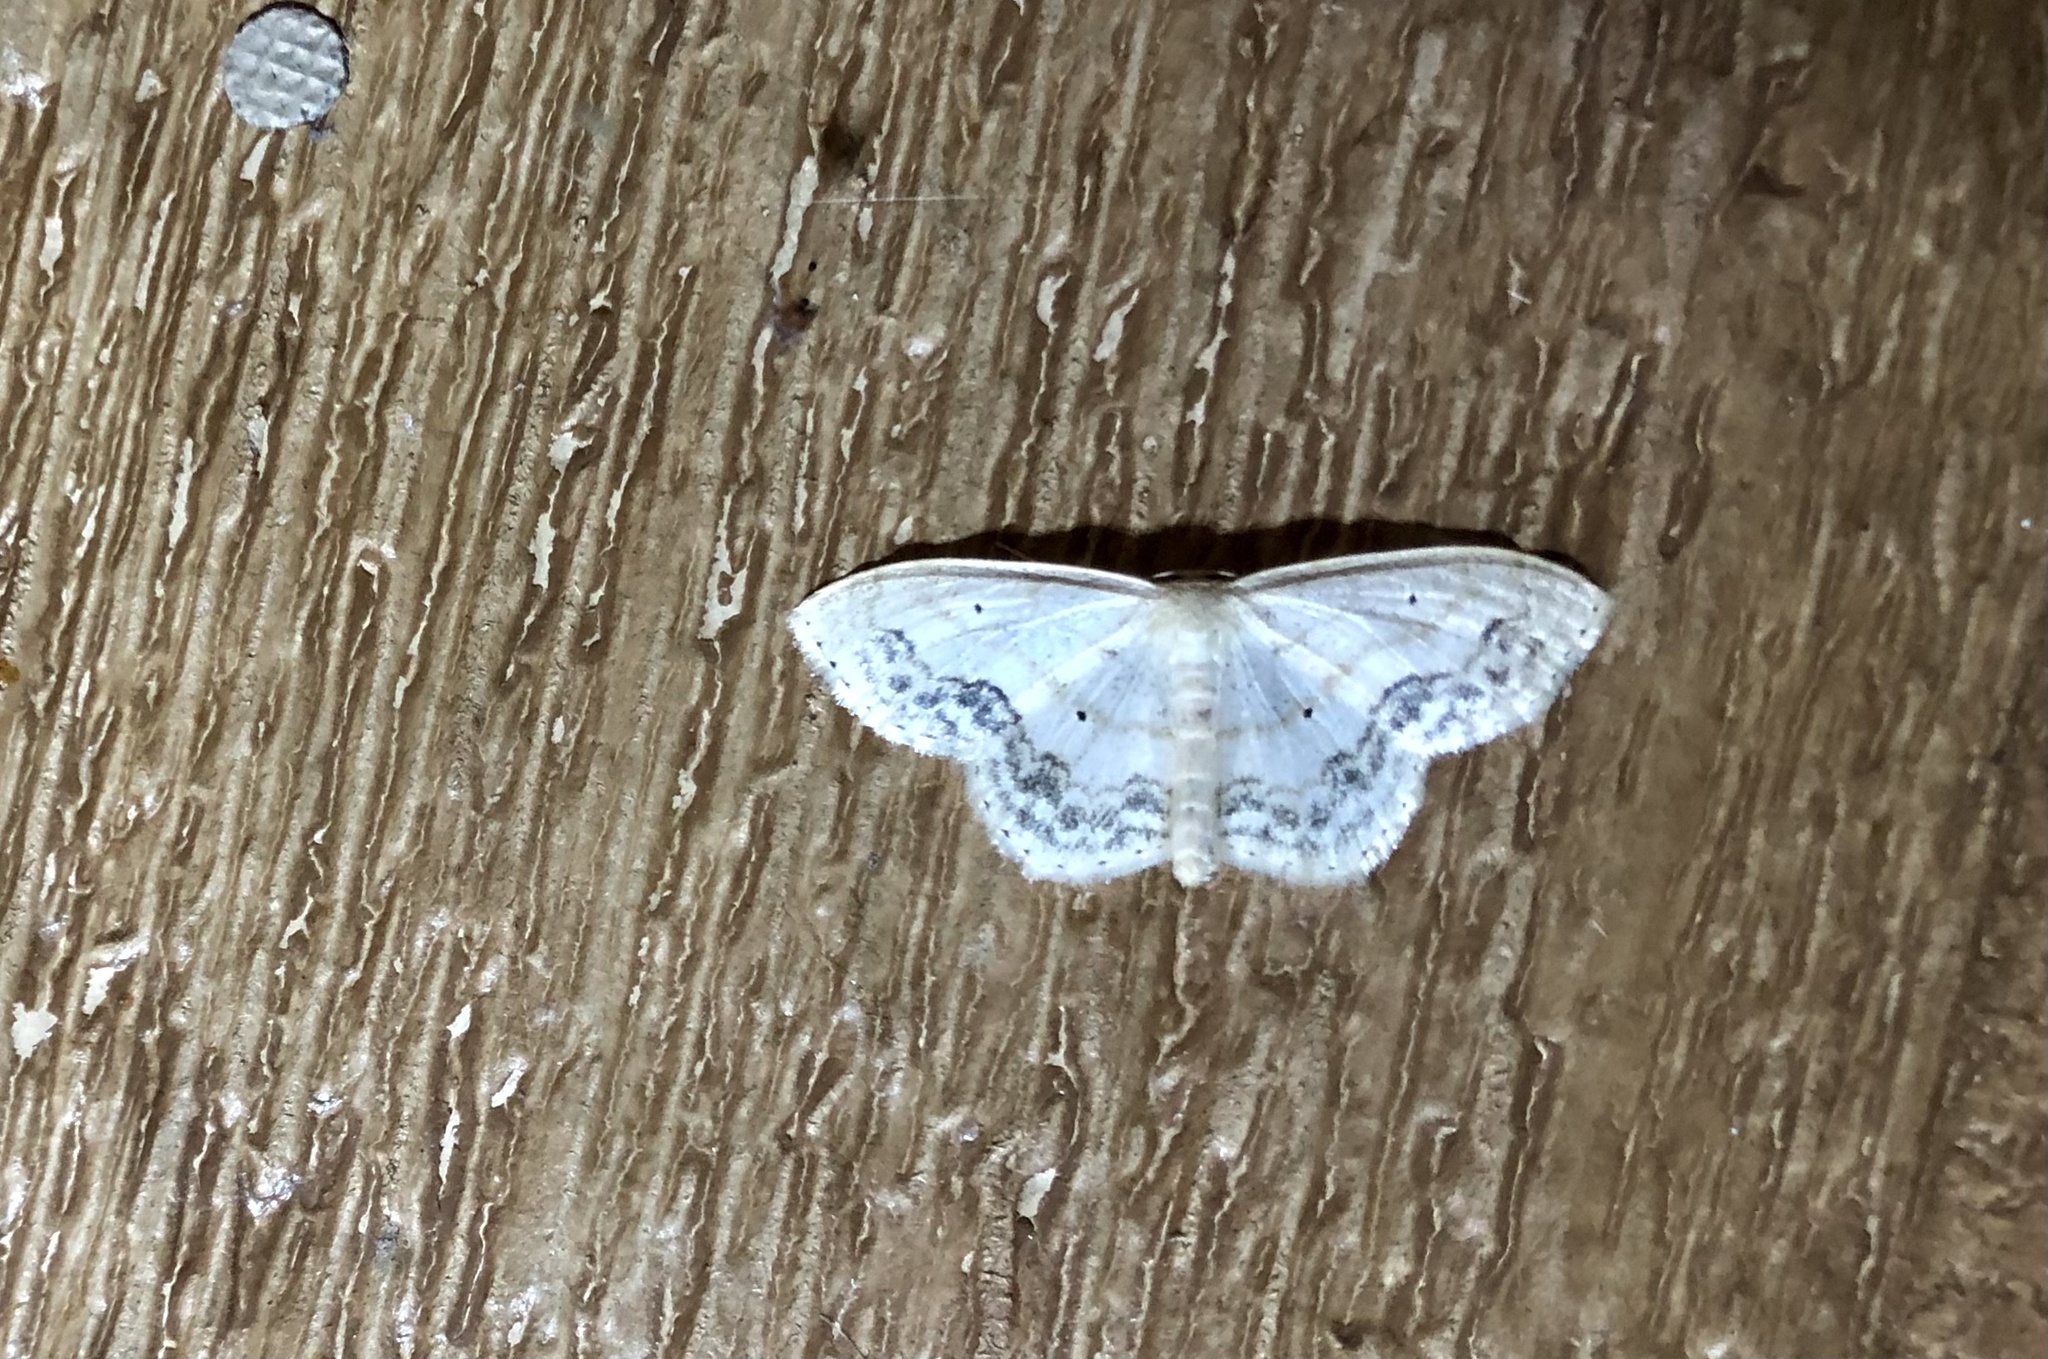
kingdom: Animalia
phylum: Arthropoda
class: Insecta
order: Lepidoptera
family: Geometridae
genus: Scopula
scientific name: Scopula limboundata
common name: Large lace border
